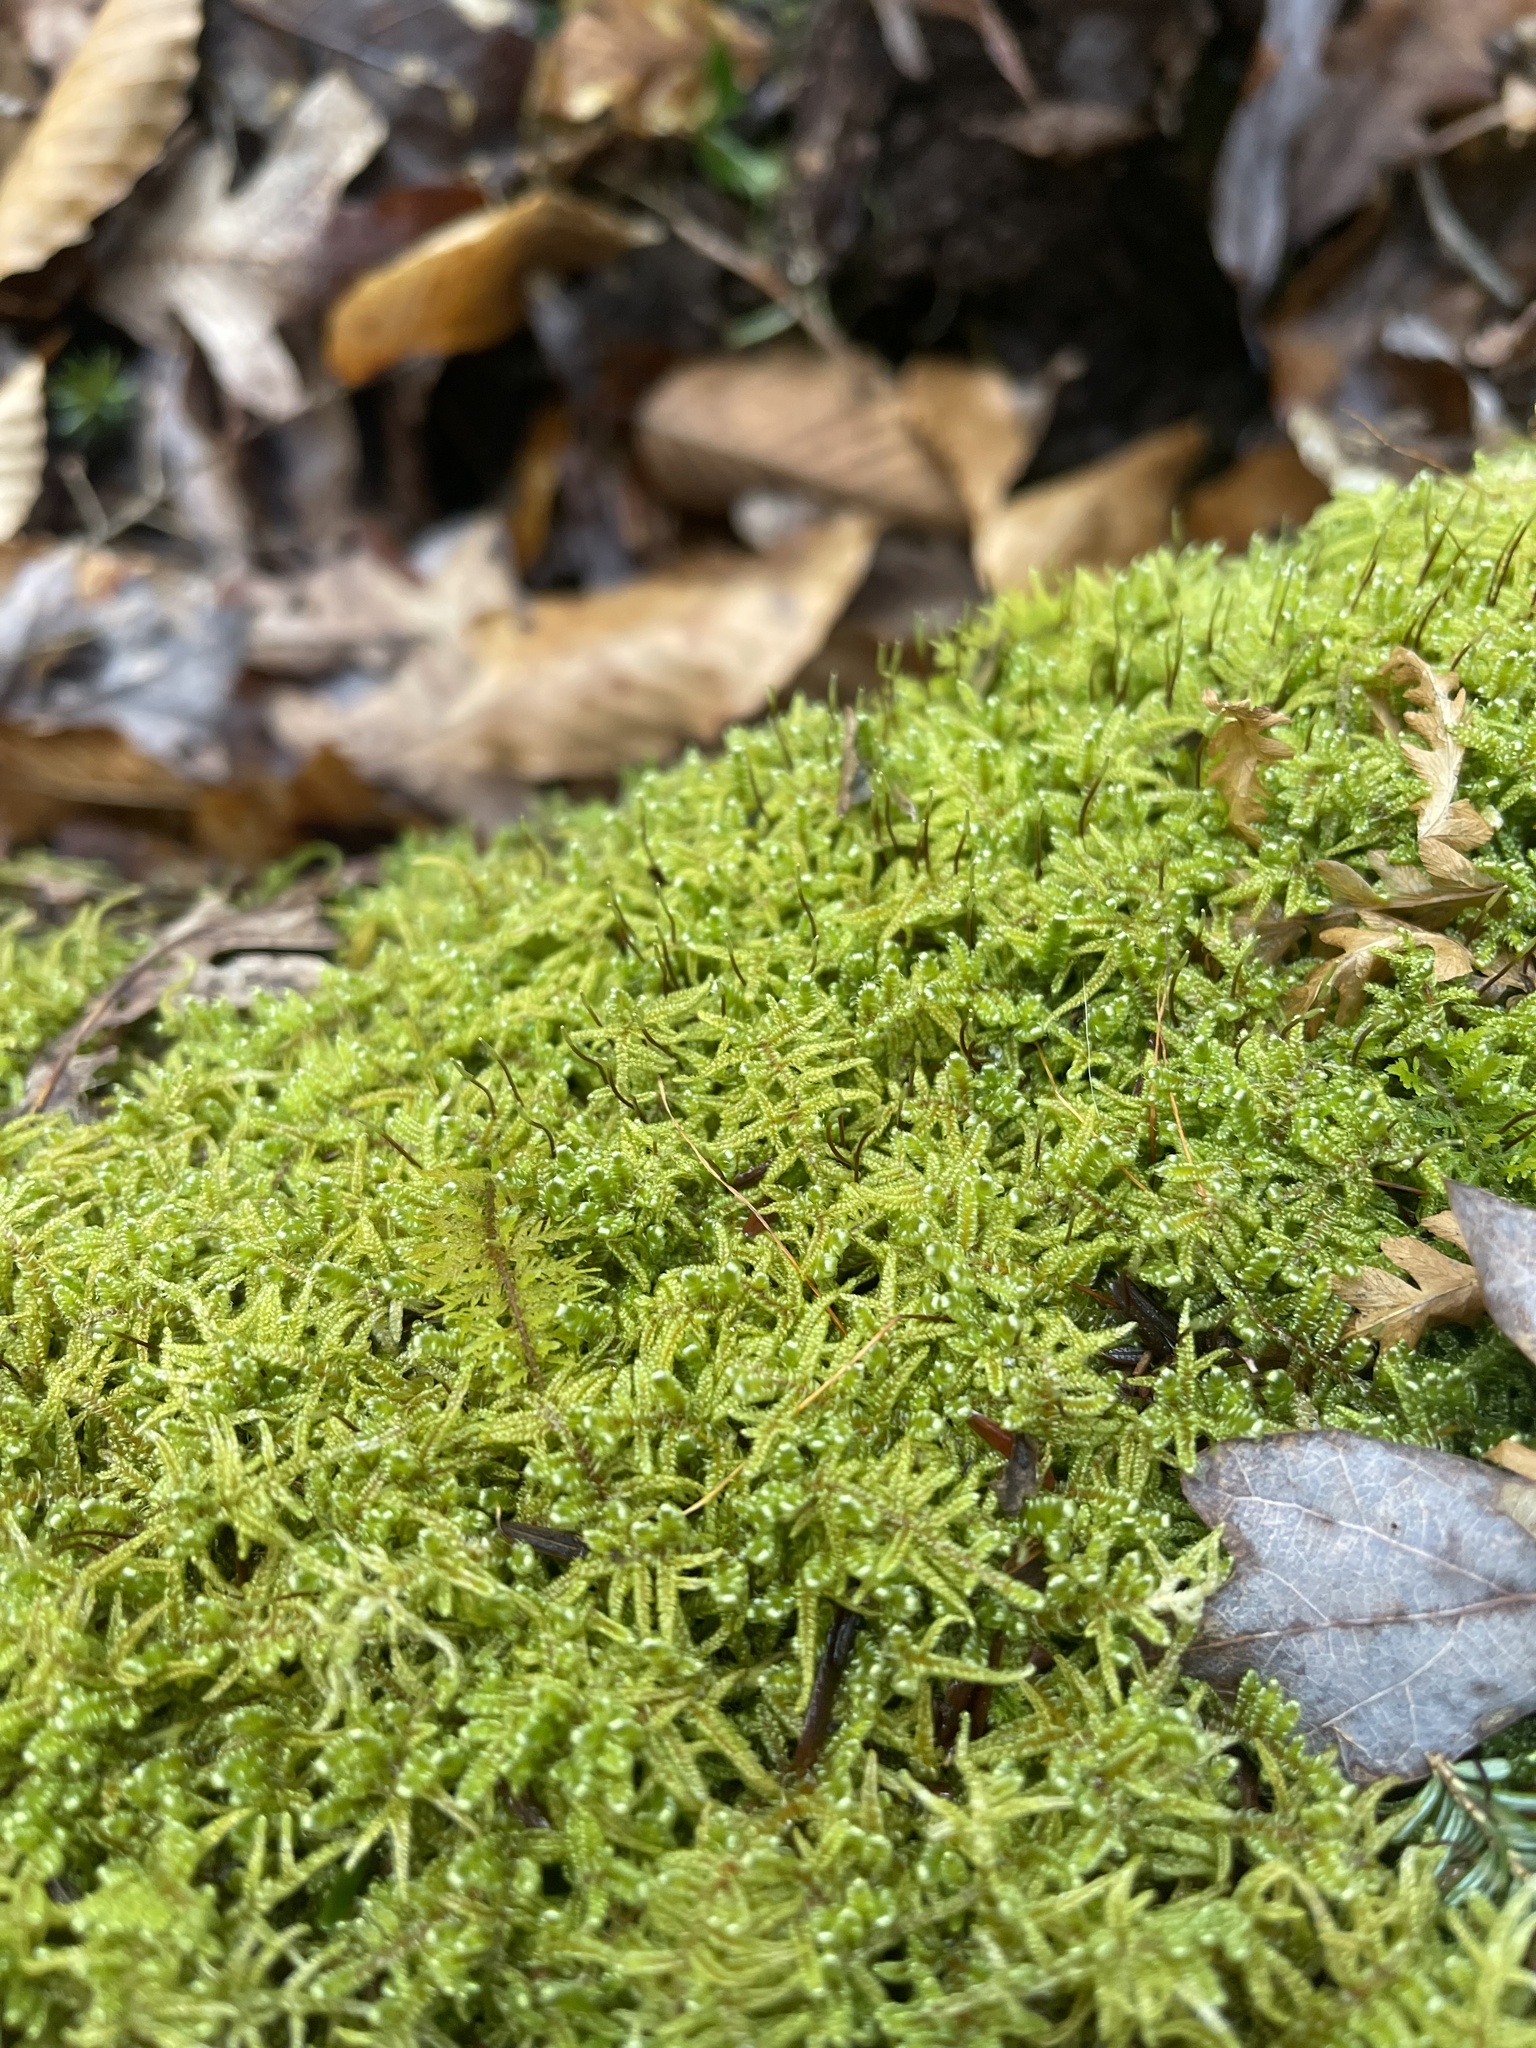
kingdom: Plantae
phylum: Bryophyta
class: Bryopsida
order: Hypnales
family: Callicladiaceae
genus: Callicladium
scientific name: Callicladium imponens
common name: Brocade moss
